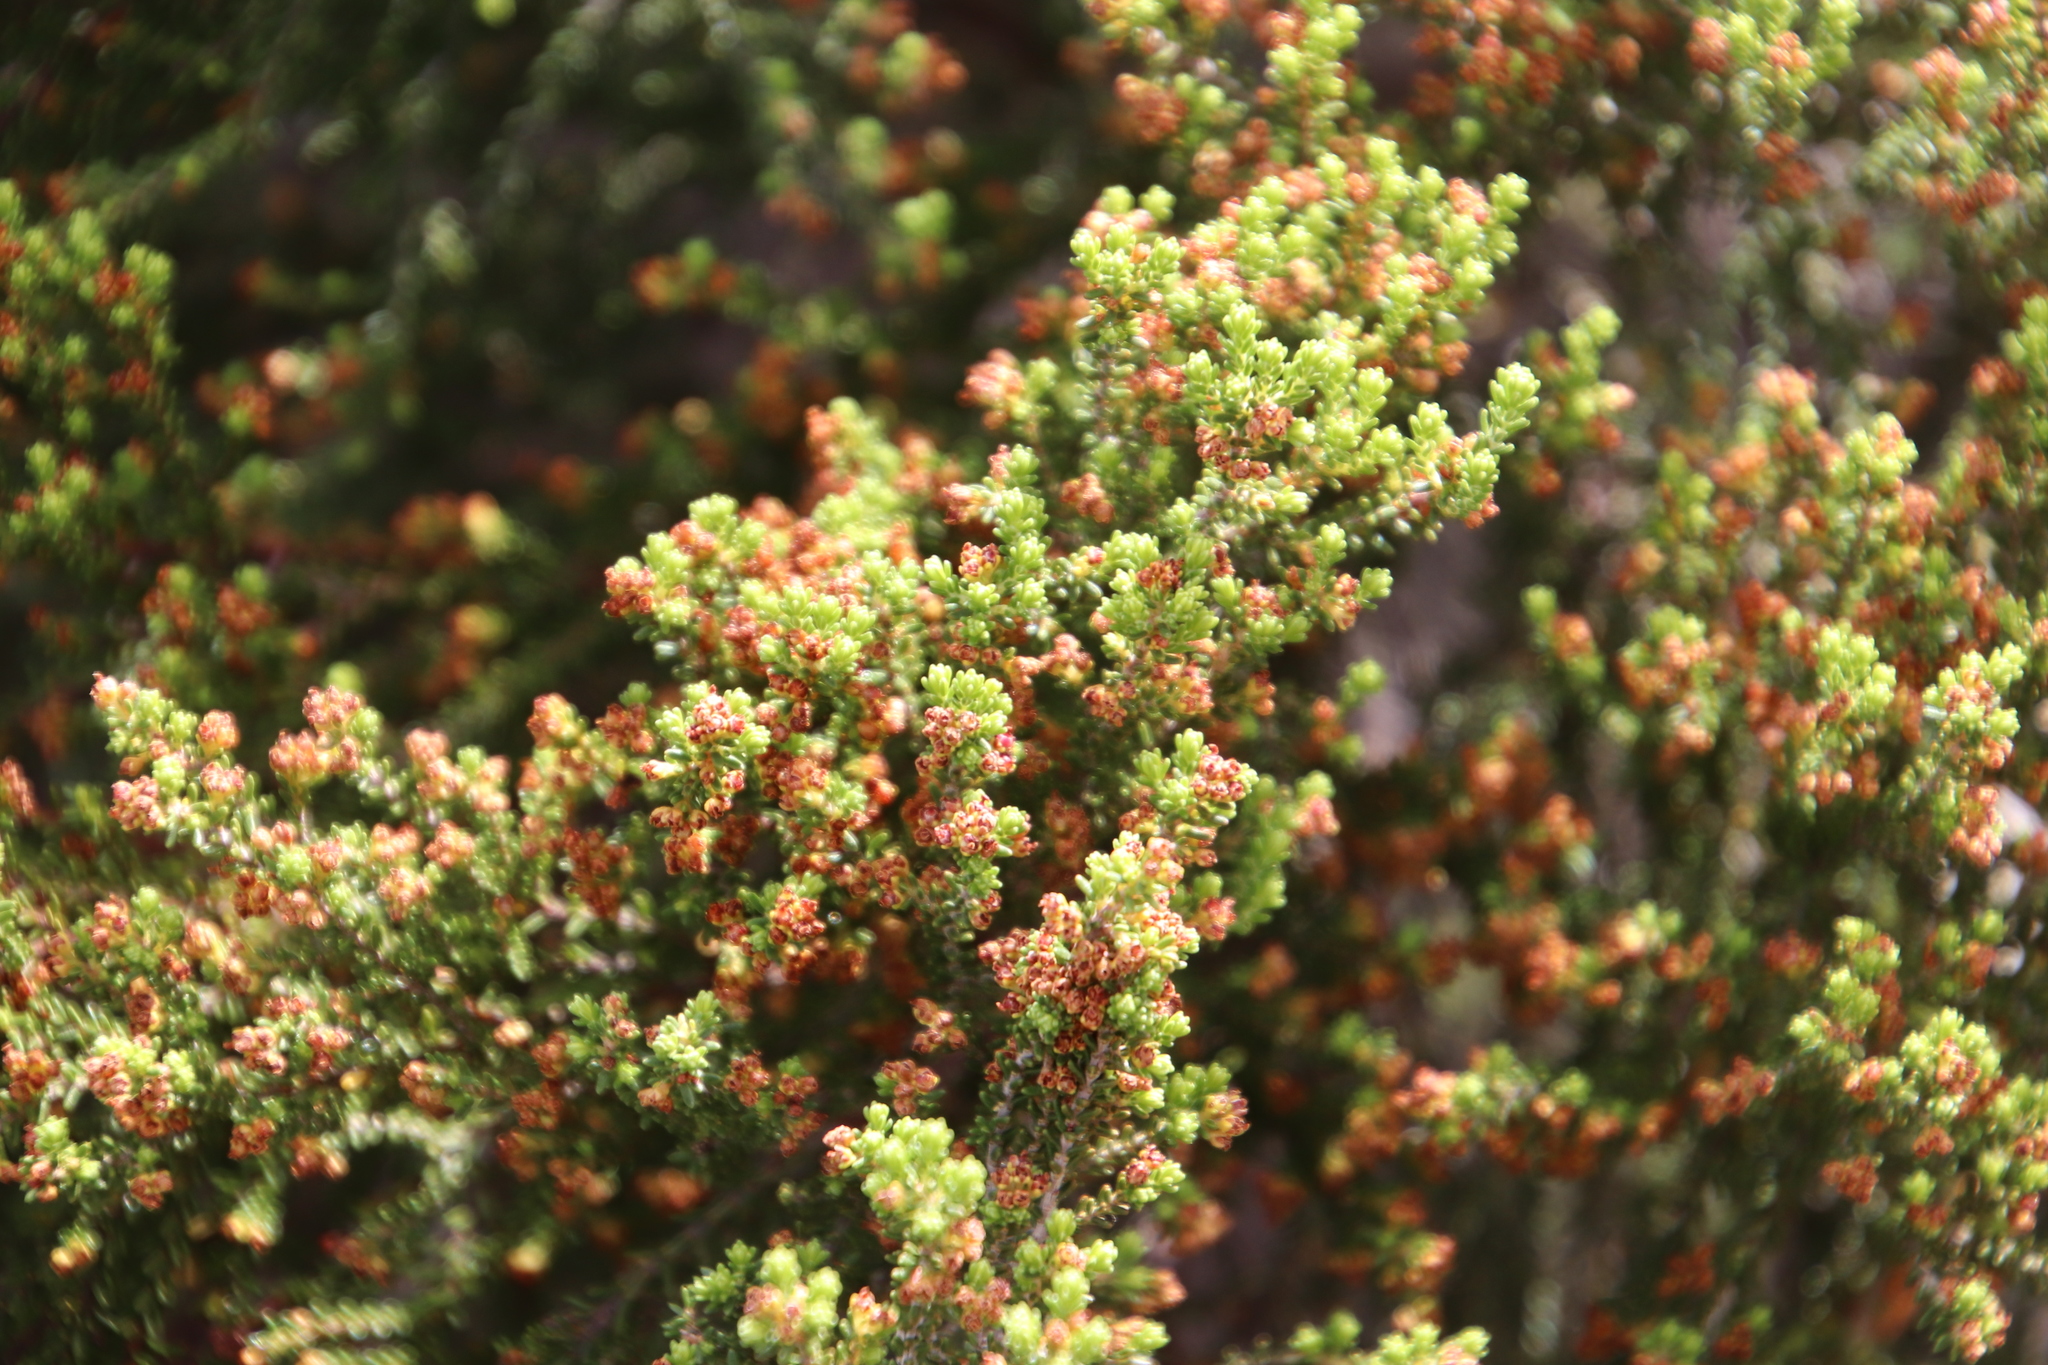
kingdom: Plantae
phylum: Tracheophyta
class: Magnoliopsida
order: Ericales
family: Ericaceae
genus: Erica
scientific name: Erica tristis
